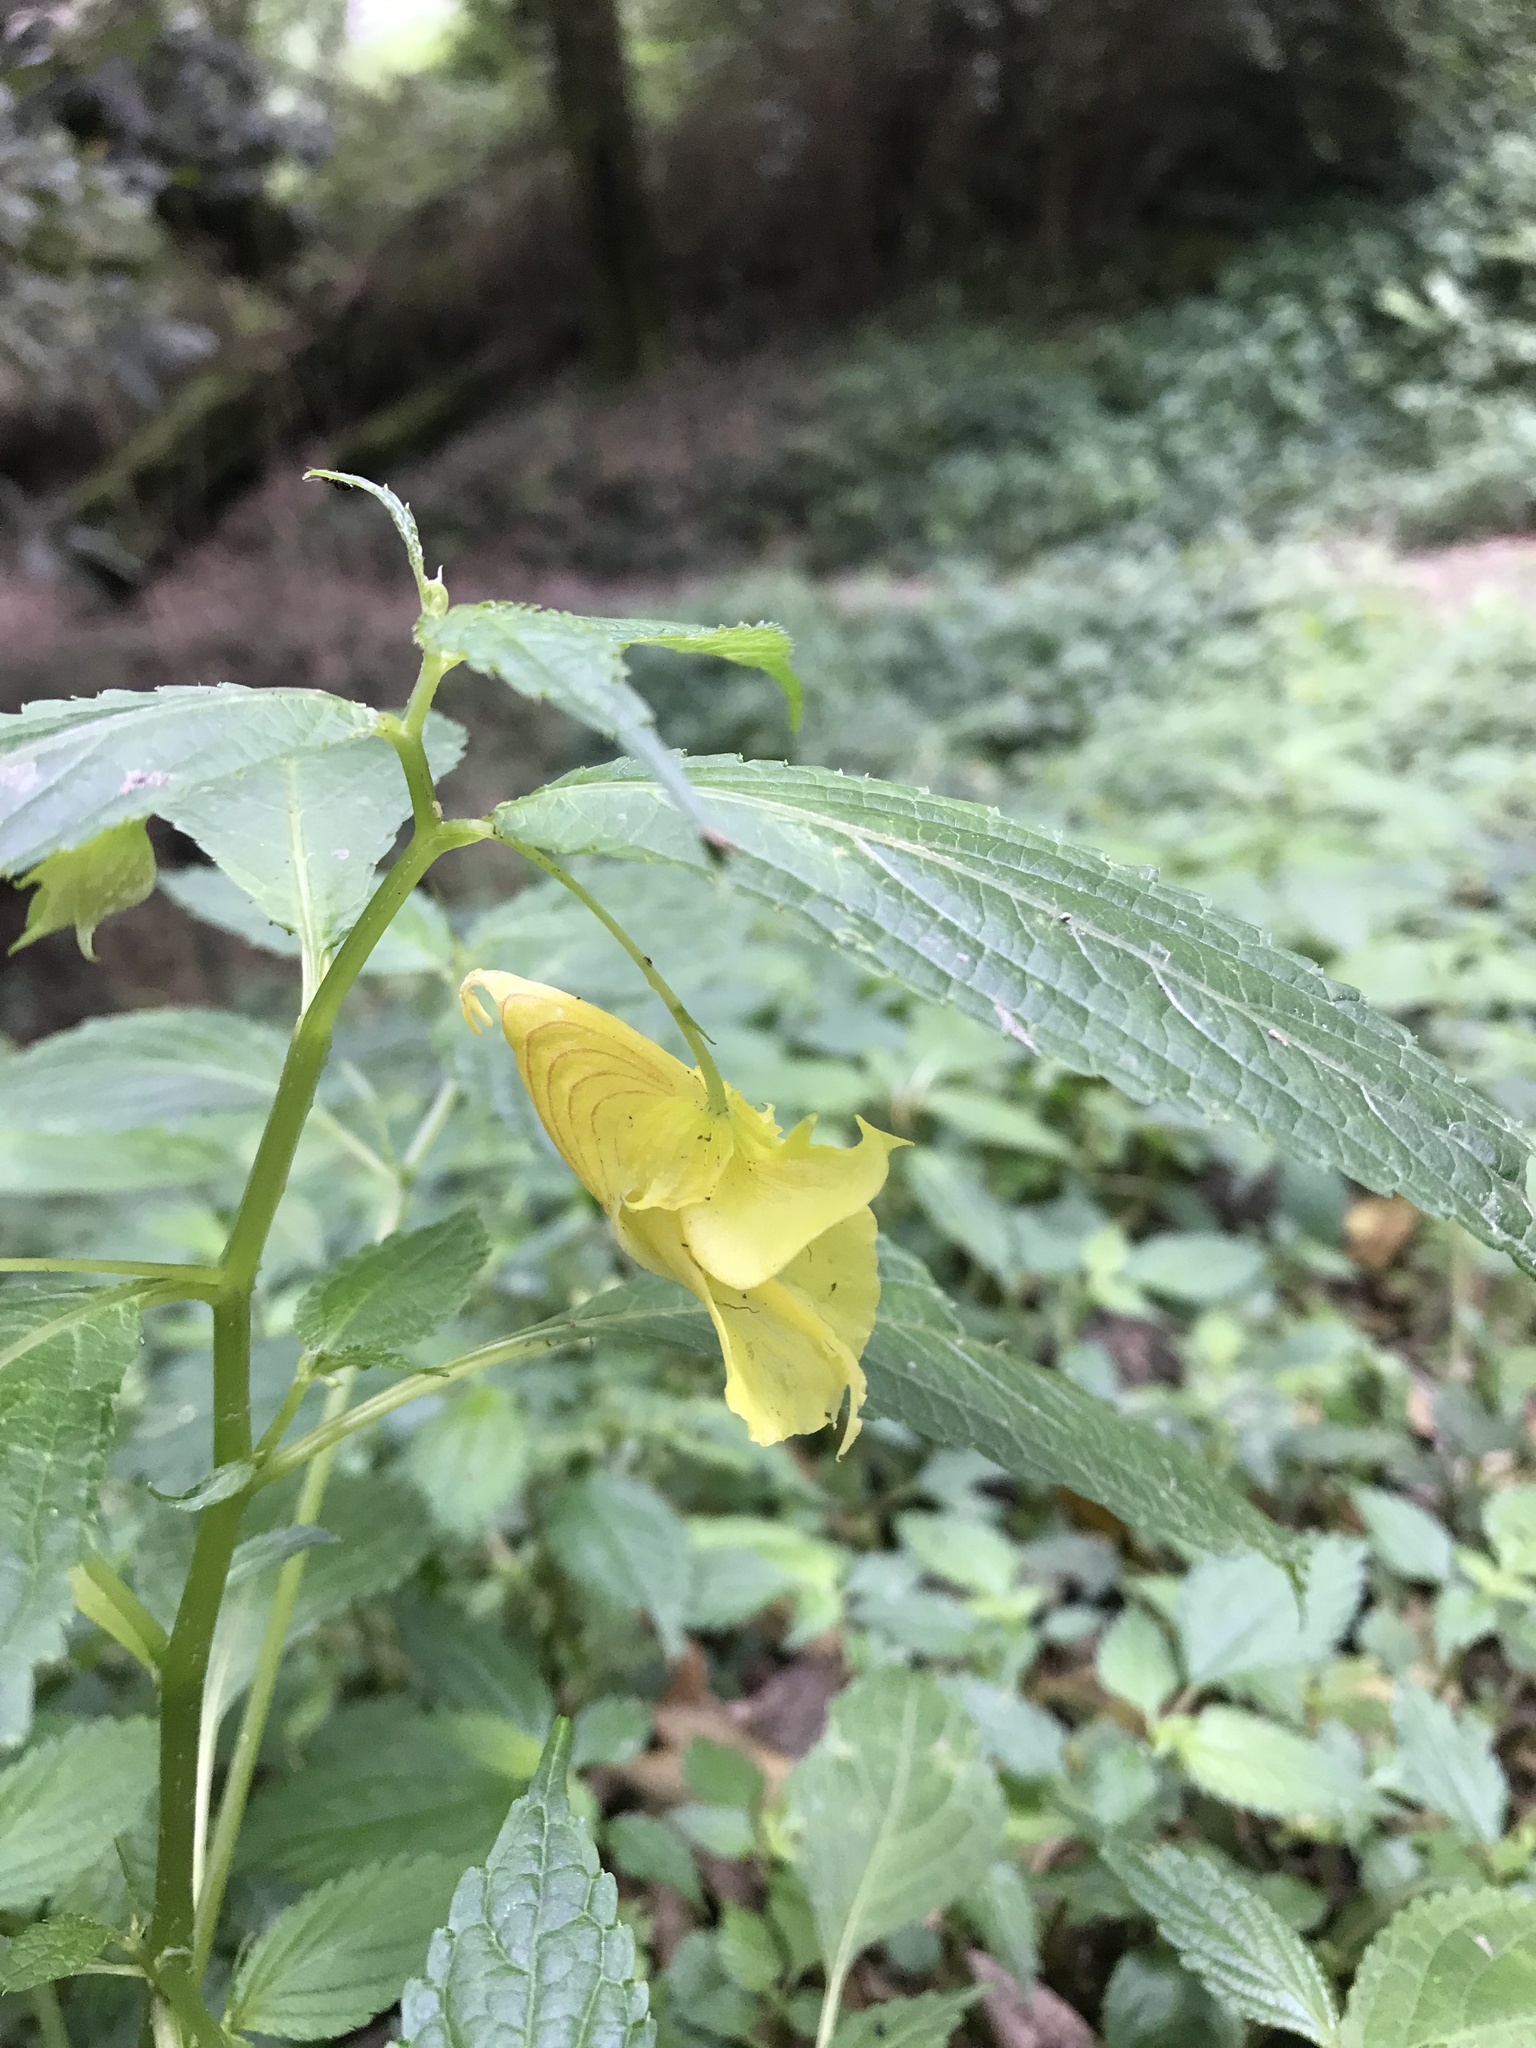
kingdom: Plantae
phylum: Tracheophyta
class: Magnoliopsida
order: Ericales
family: Balsaminaceae
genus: Impatiens
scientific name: Impatiens tayemonii
